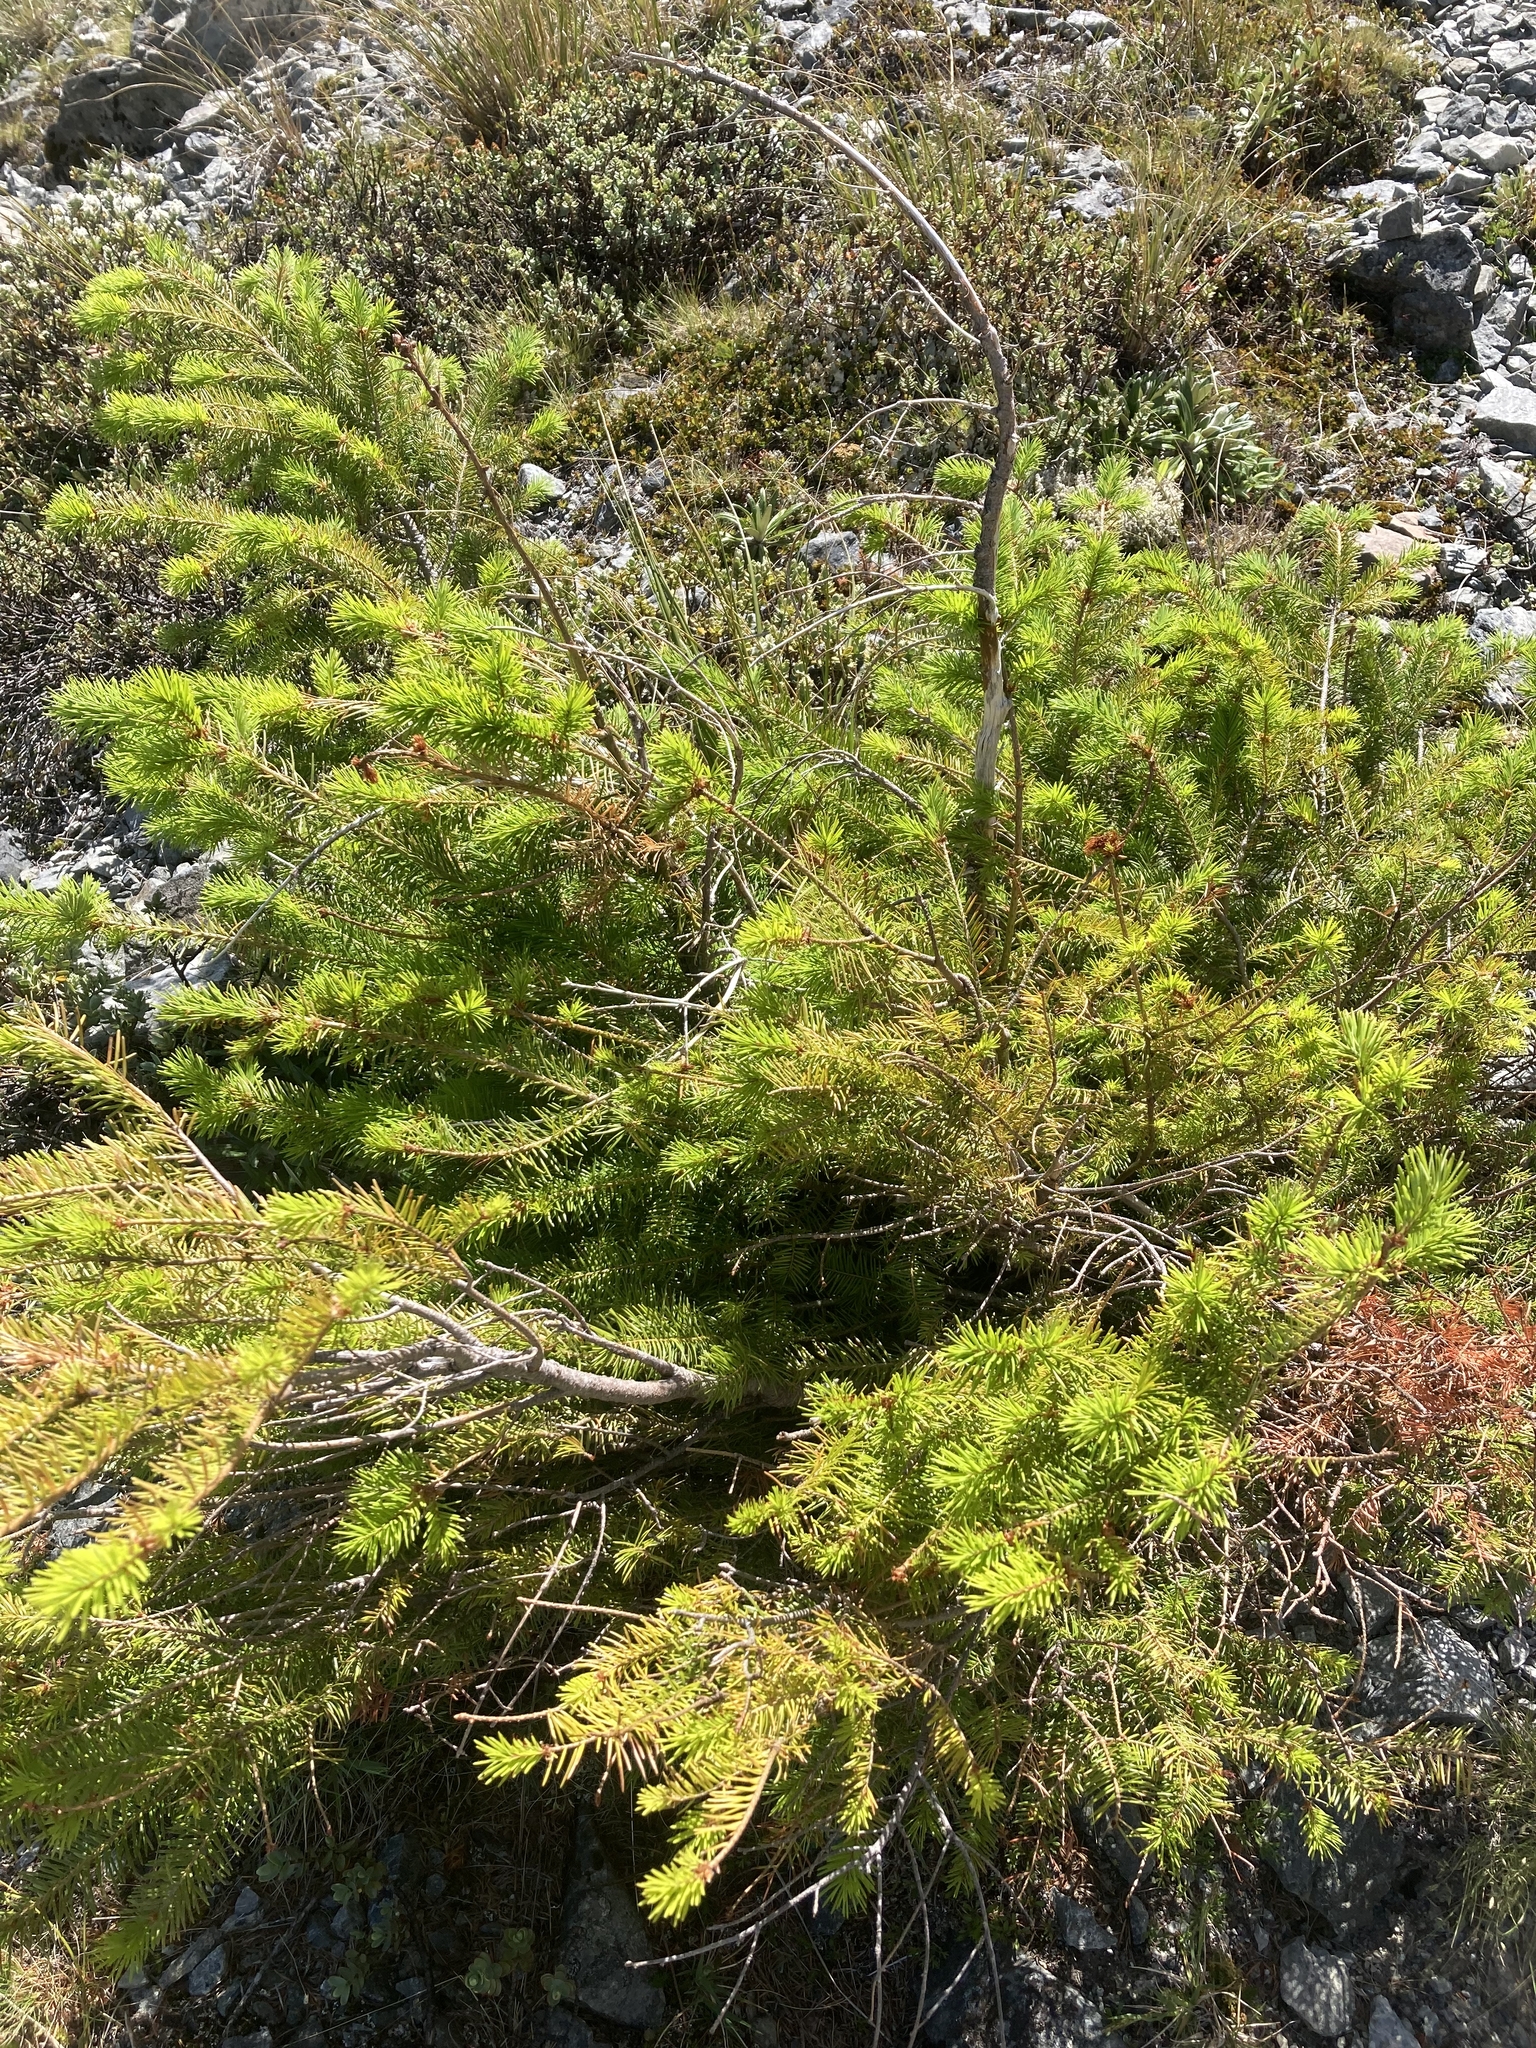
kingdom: Plantae
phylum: Tracheophyta
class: Pinopsida
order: Pinales
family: Pinaceae
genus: Pseudotsuga
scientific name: Pseudotsuga menziesii
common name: Douglas fir
